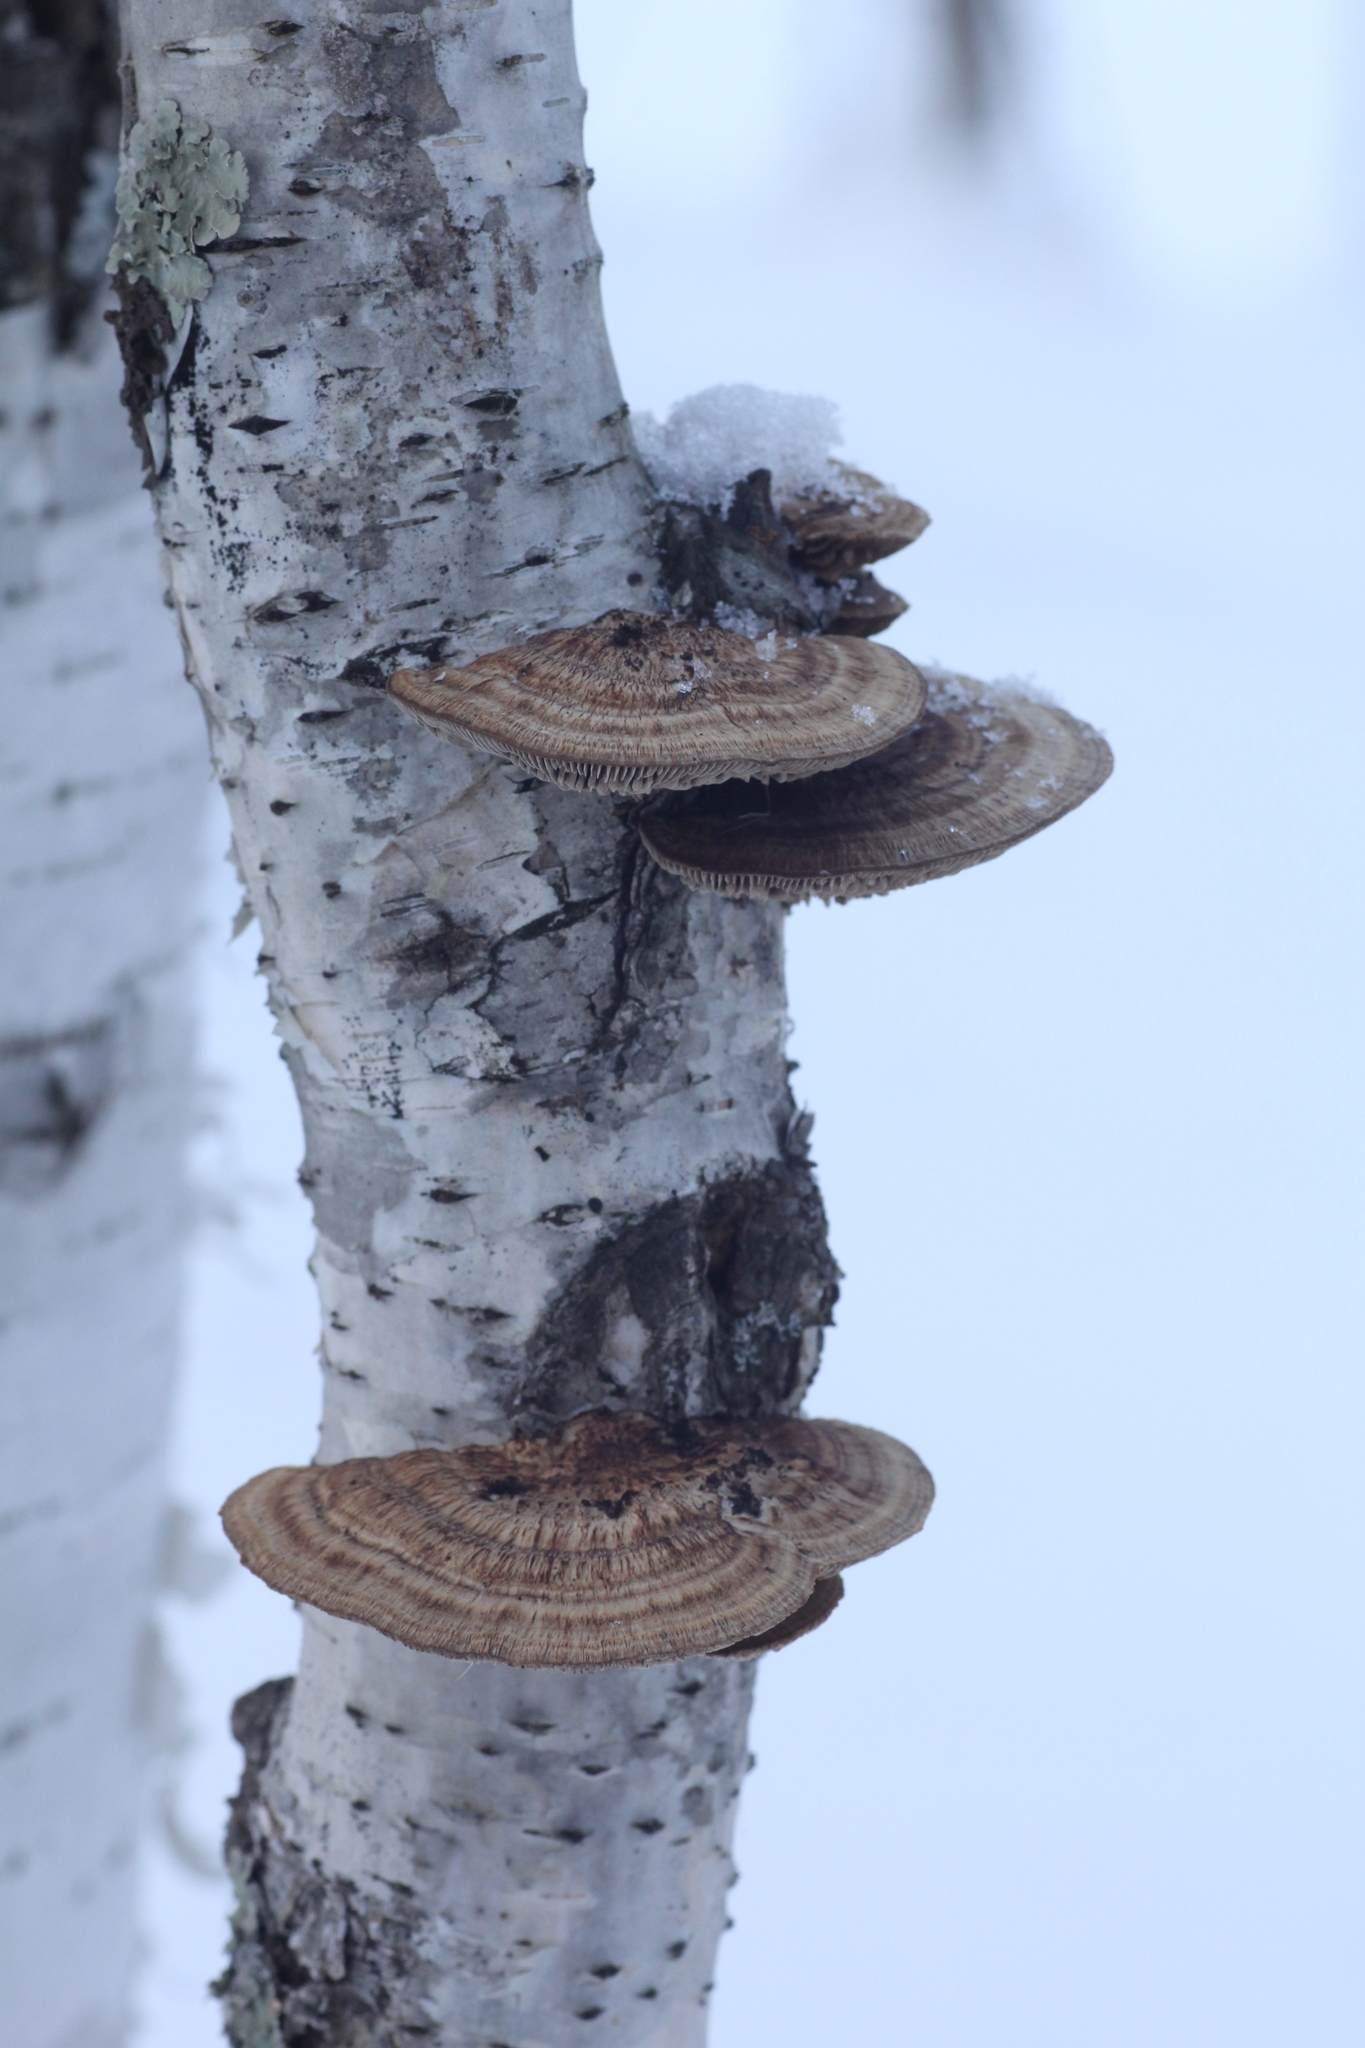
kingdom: Fungi
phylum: Basidiomycota
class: Agaricomycetes
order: Polyporales
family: Polyporaceae
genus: Daedaleopsis
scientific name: Daedaleopsis confragosa
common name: Blushing bracket
